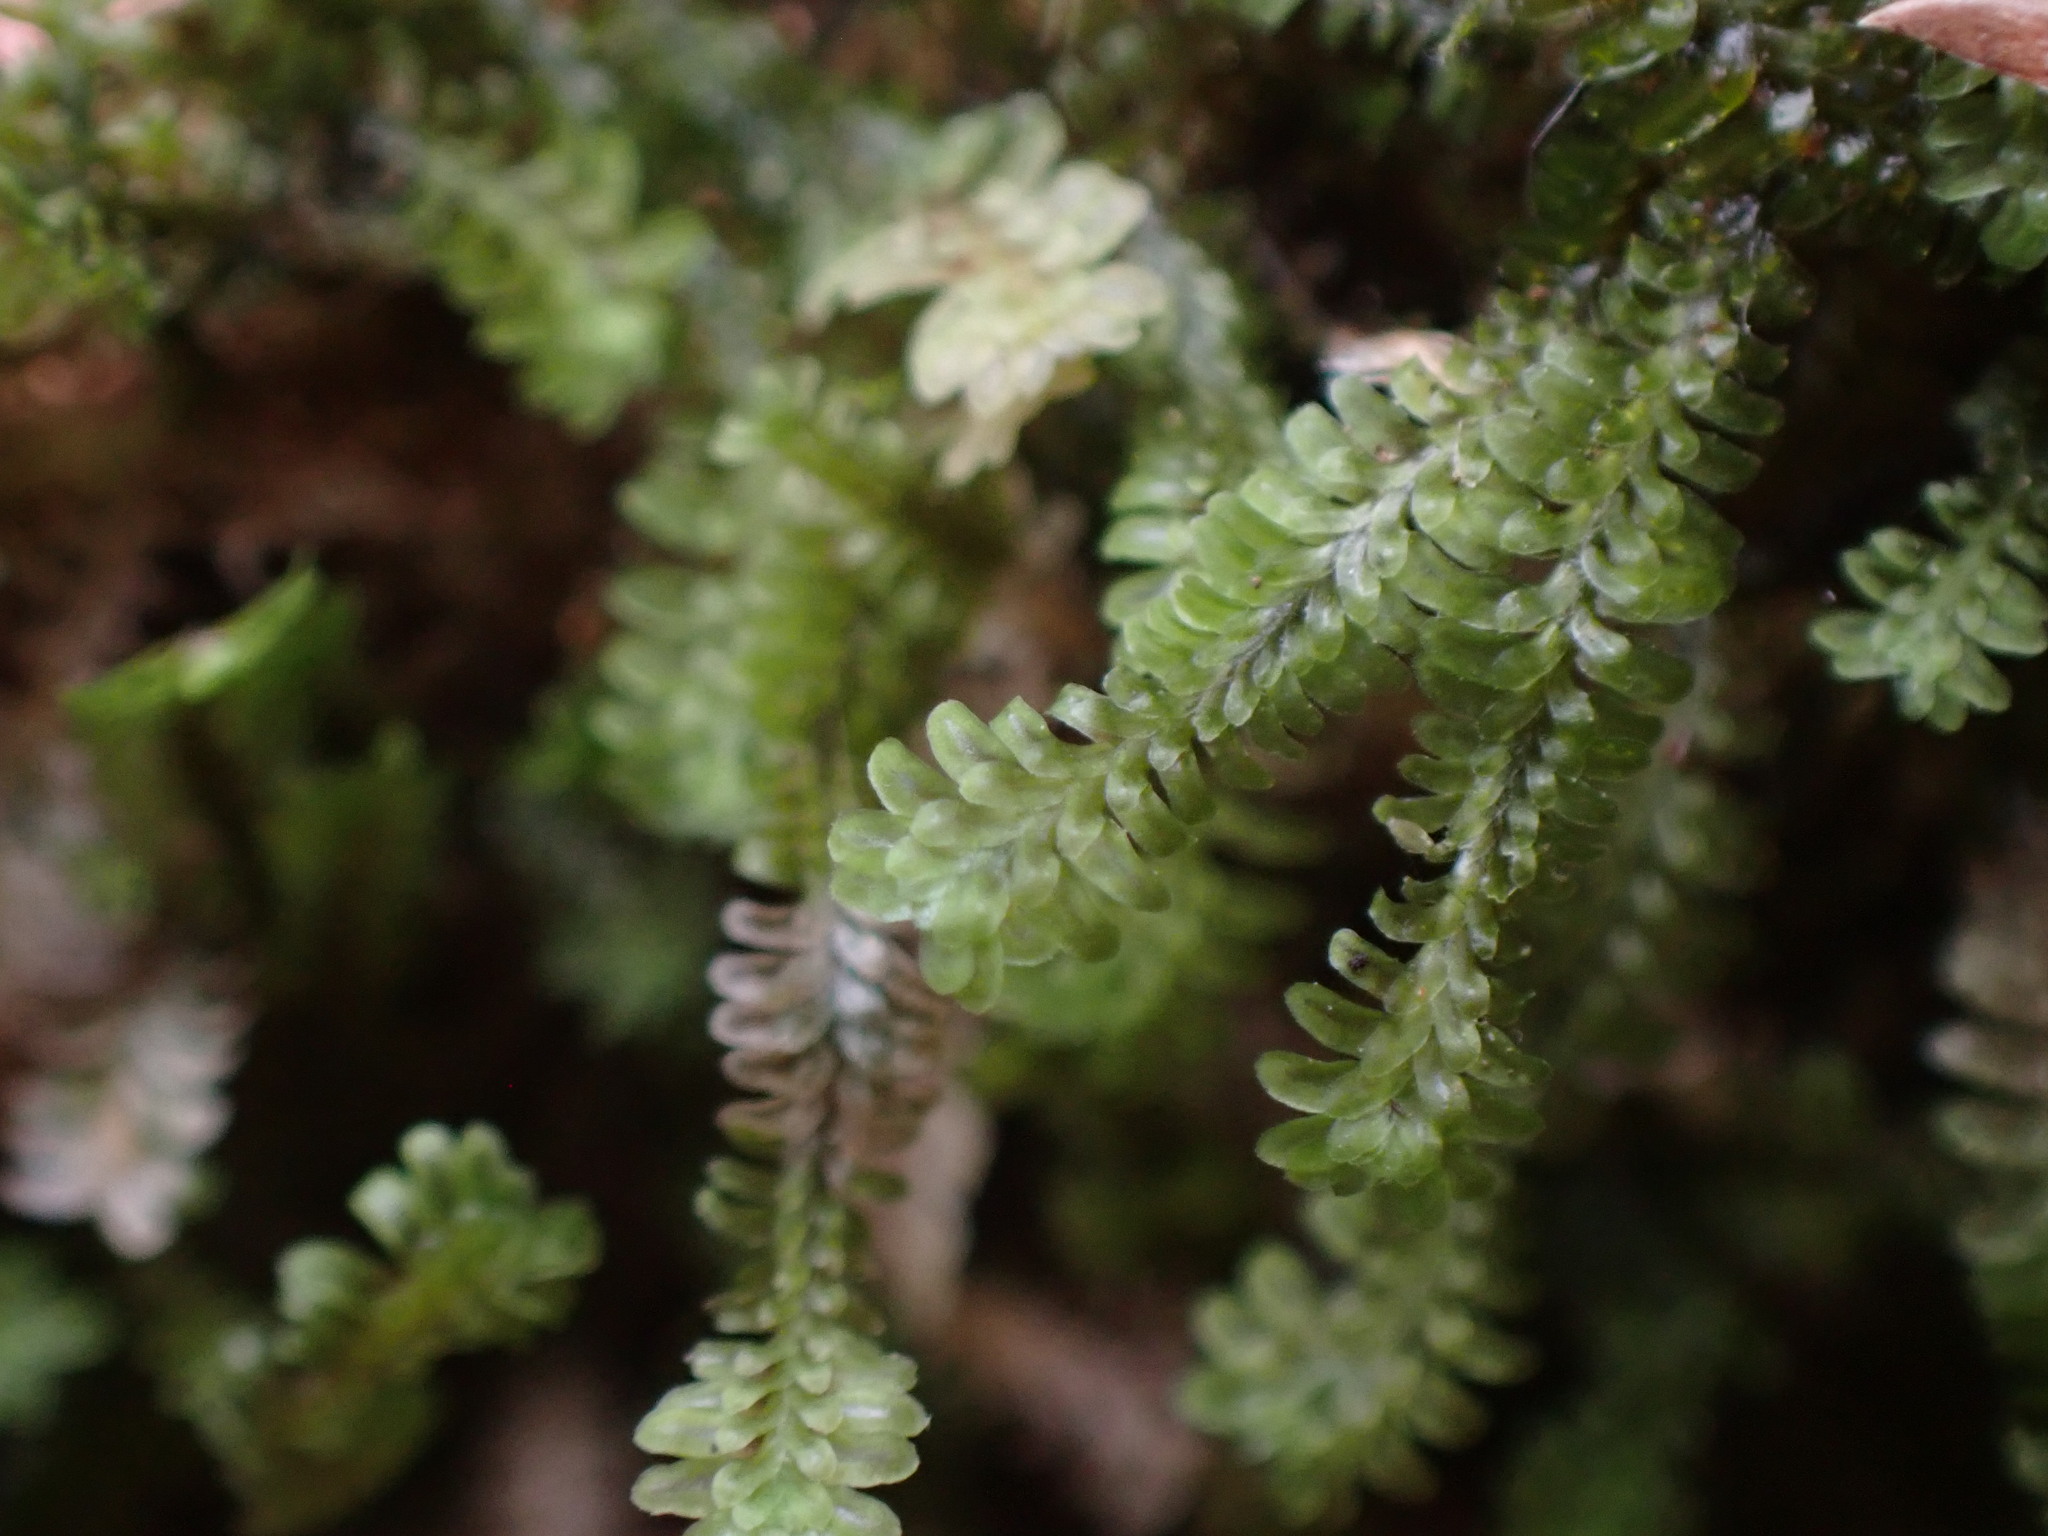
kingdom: Plantae
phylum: Marchantiophyta
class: Jungermanniopsida
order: Jungermanniales
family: Scapaniaceae
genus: Diplophyllum
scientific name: Diplophyllum albicans
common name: White earwort
